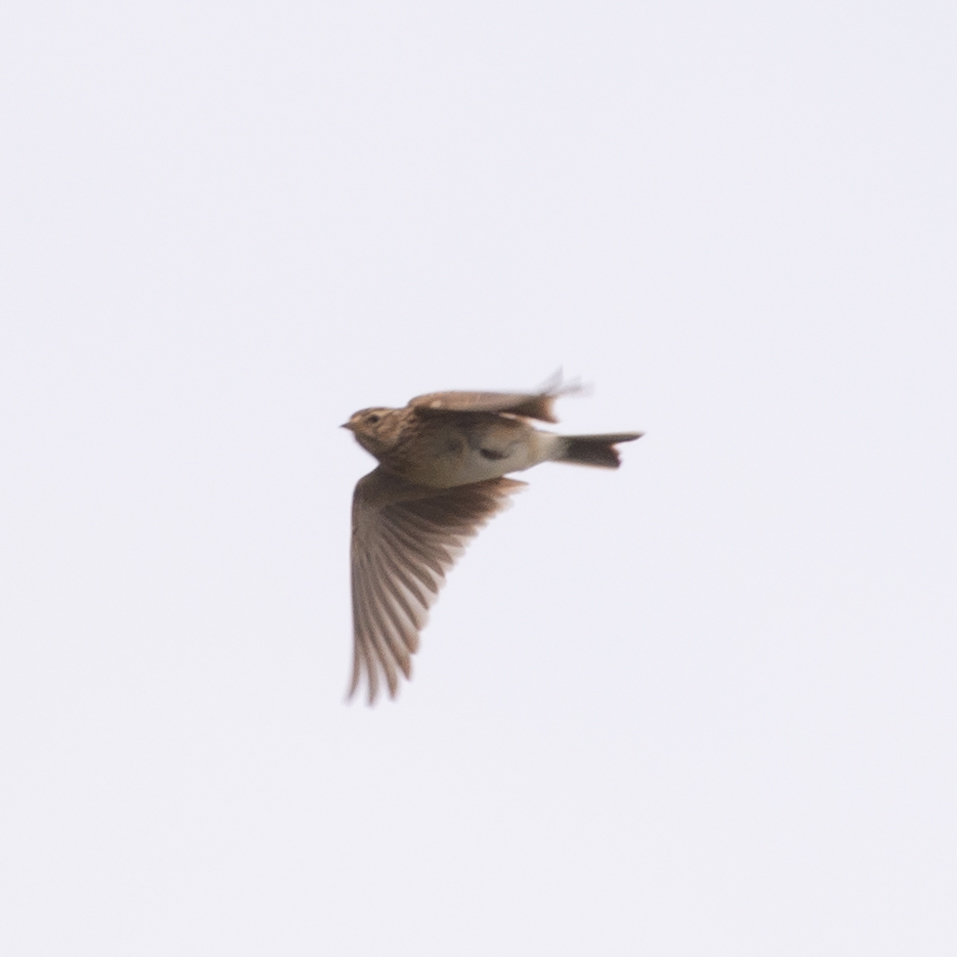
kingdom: Animalia
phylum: Chordata
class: Aves
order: Passeriformes
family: Alaudidae
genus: Alauda
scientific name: Alauda arvensis
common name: Eurasian skylark
